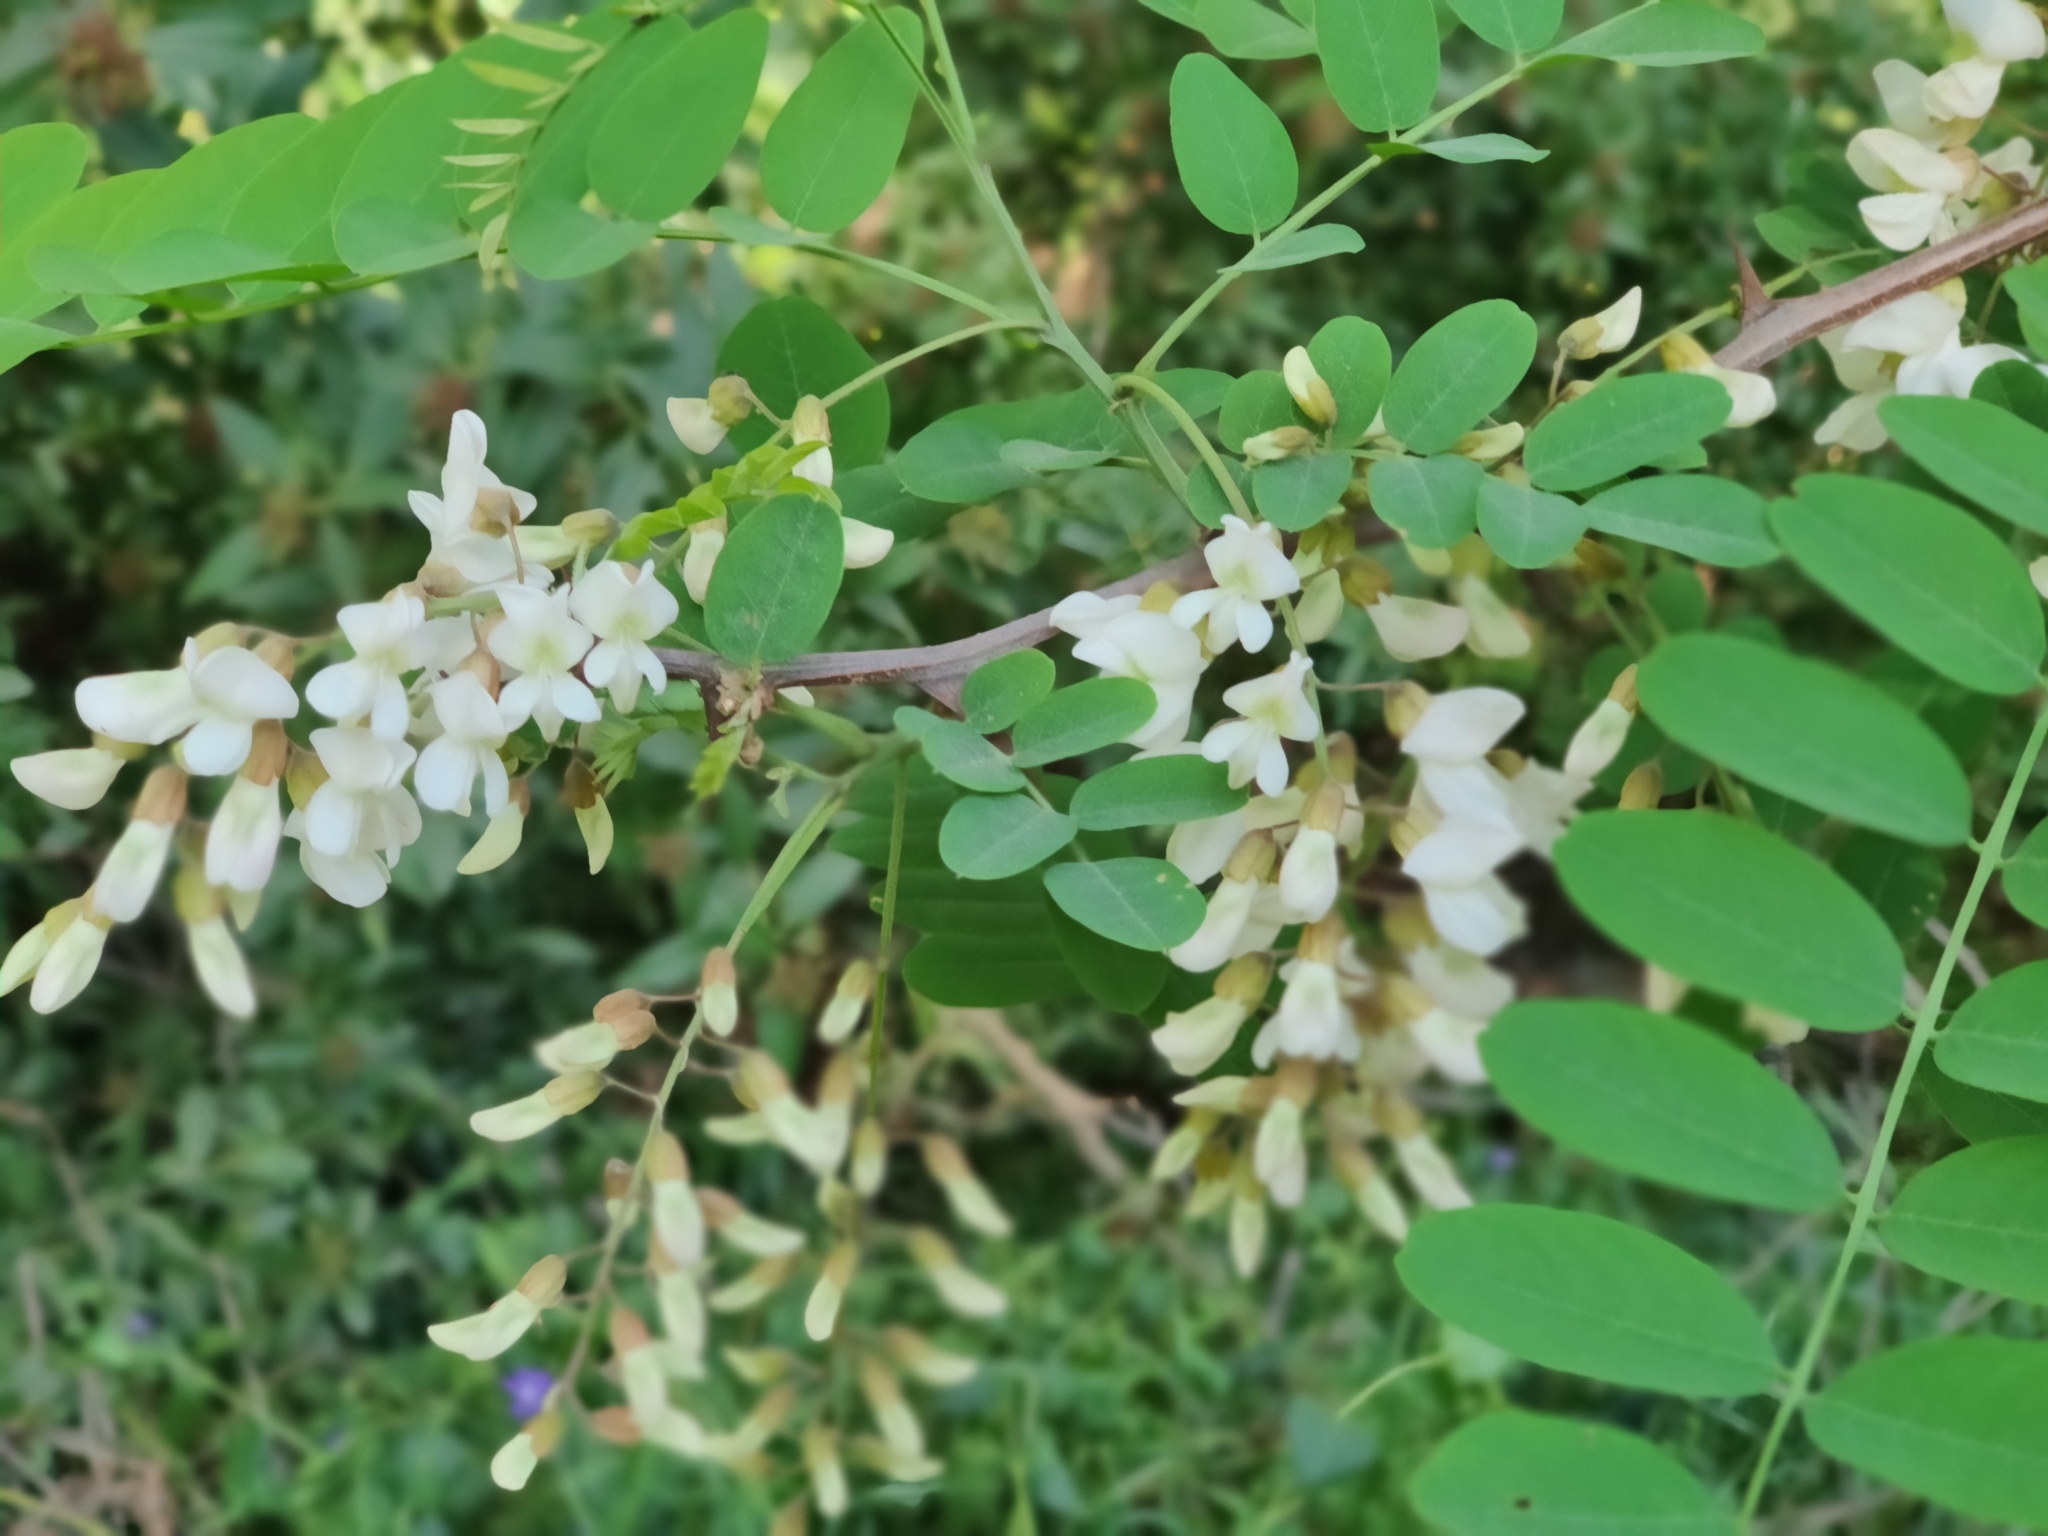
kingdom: Plantae
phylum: Tracheophyta
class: Magnoliopsida
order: Fabales
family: Fabaceae
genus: Robinia
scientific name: Robinia pseudoacacia
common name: Black locust
